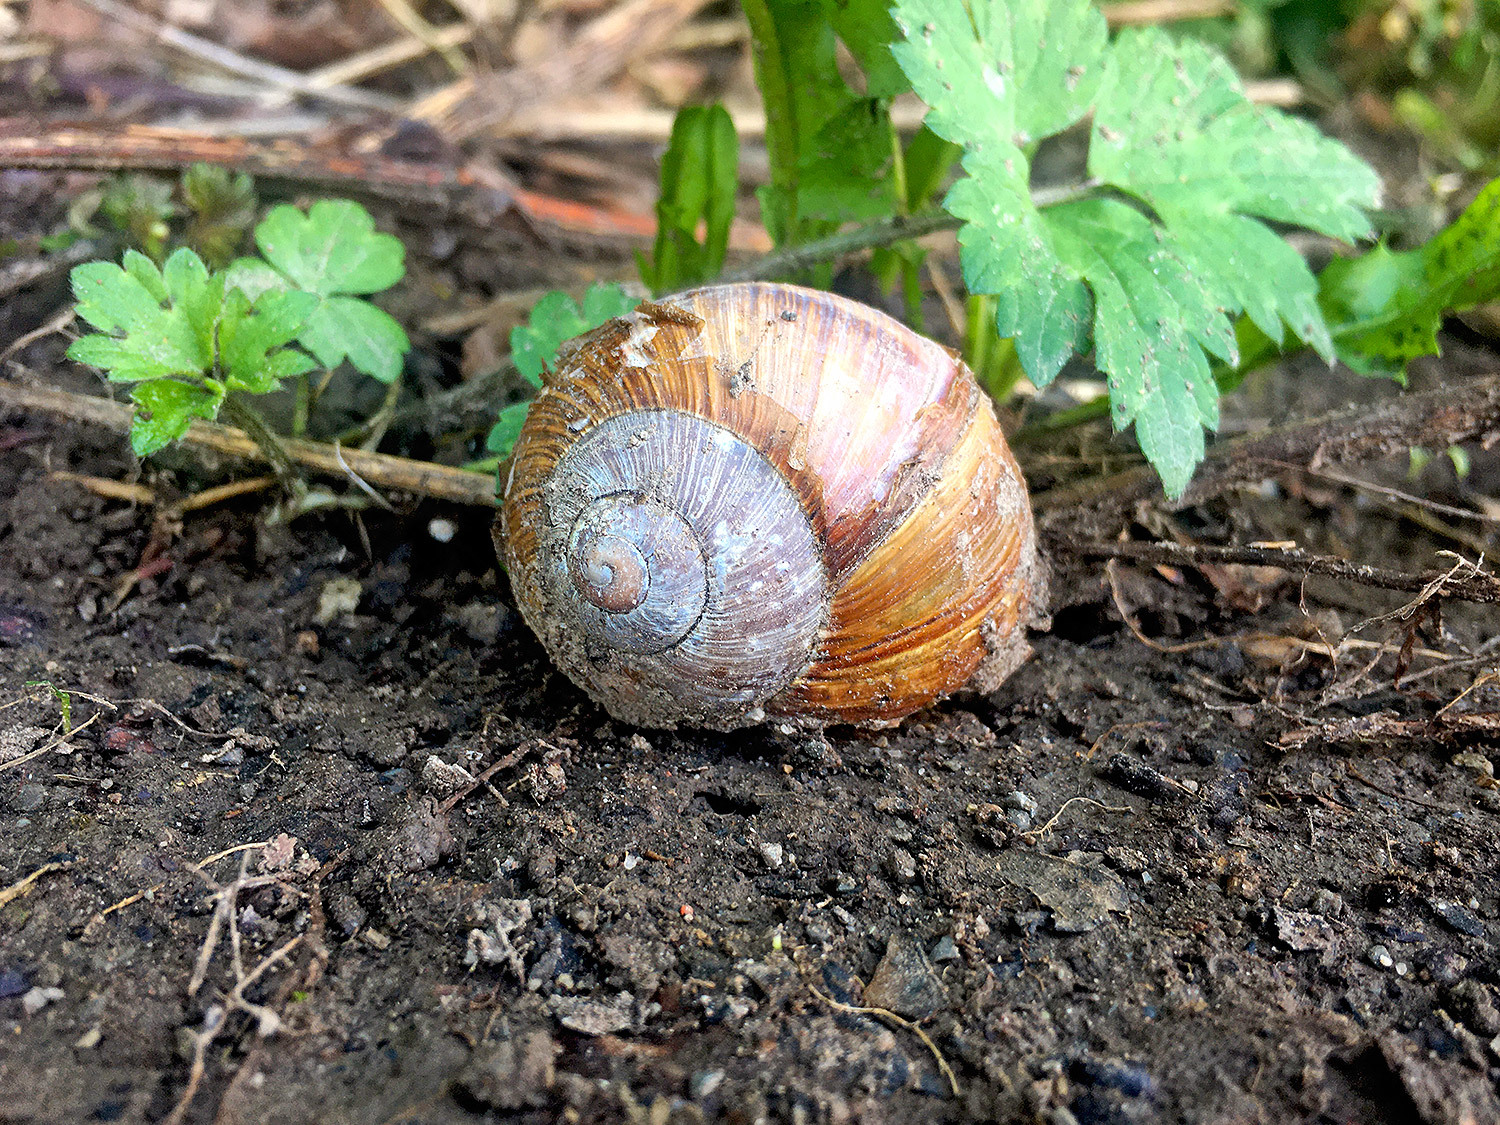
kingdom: Animalia
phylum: Mollusca
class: Gastropoda
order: Stylommatophora
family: Helicidae
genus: Helix
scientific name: Helix pomatia
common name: Roman snail
